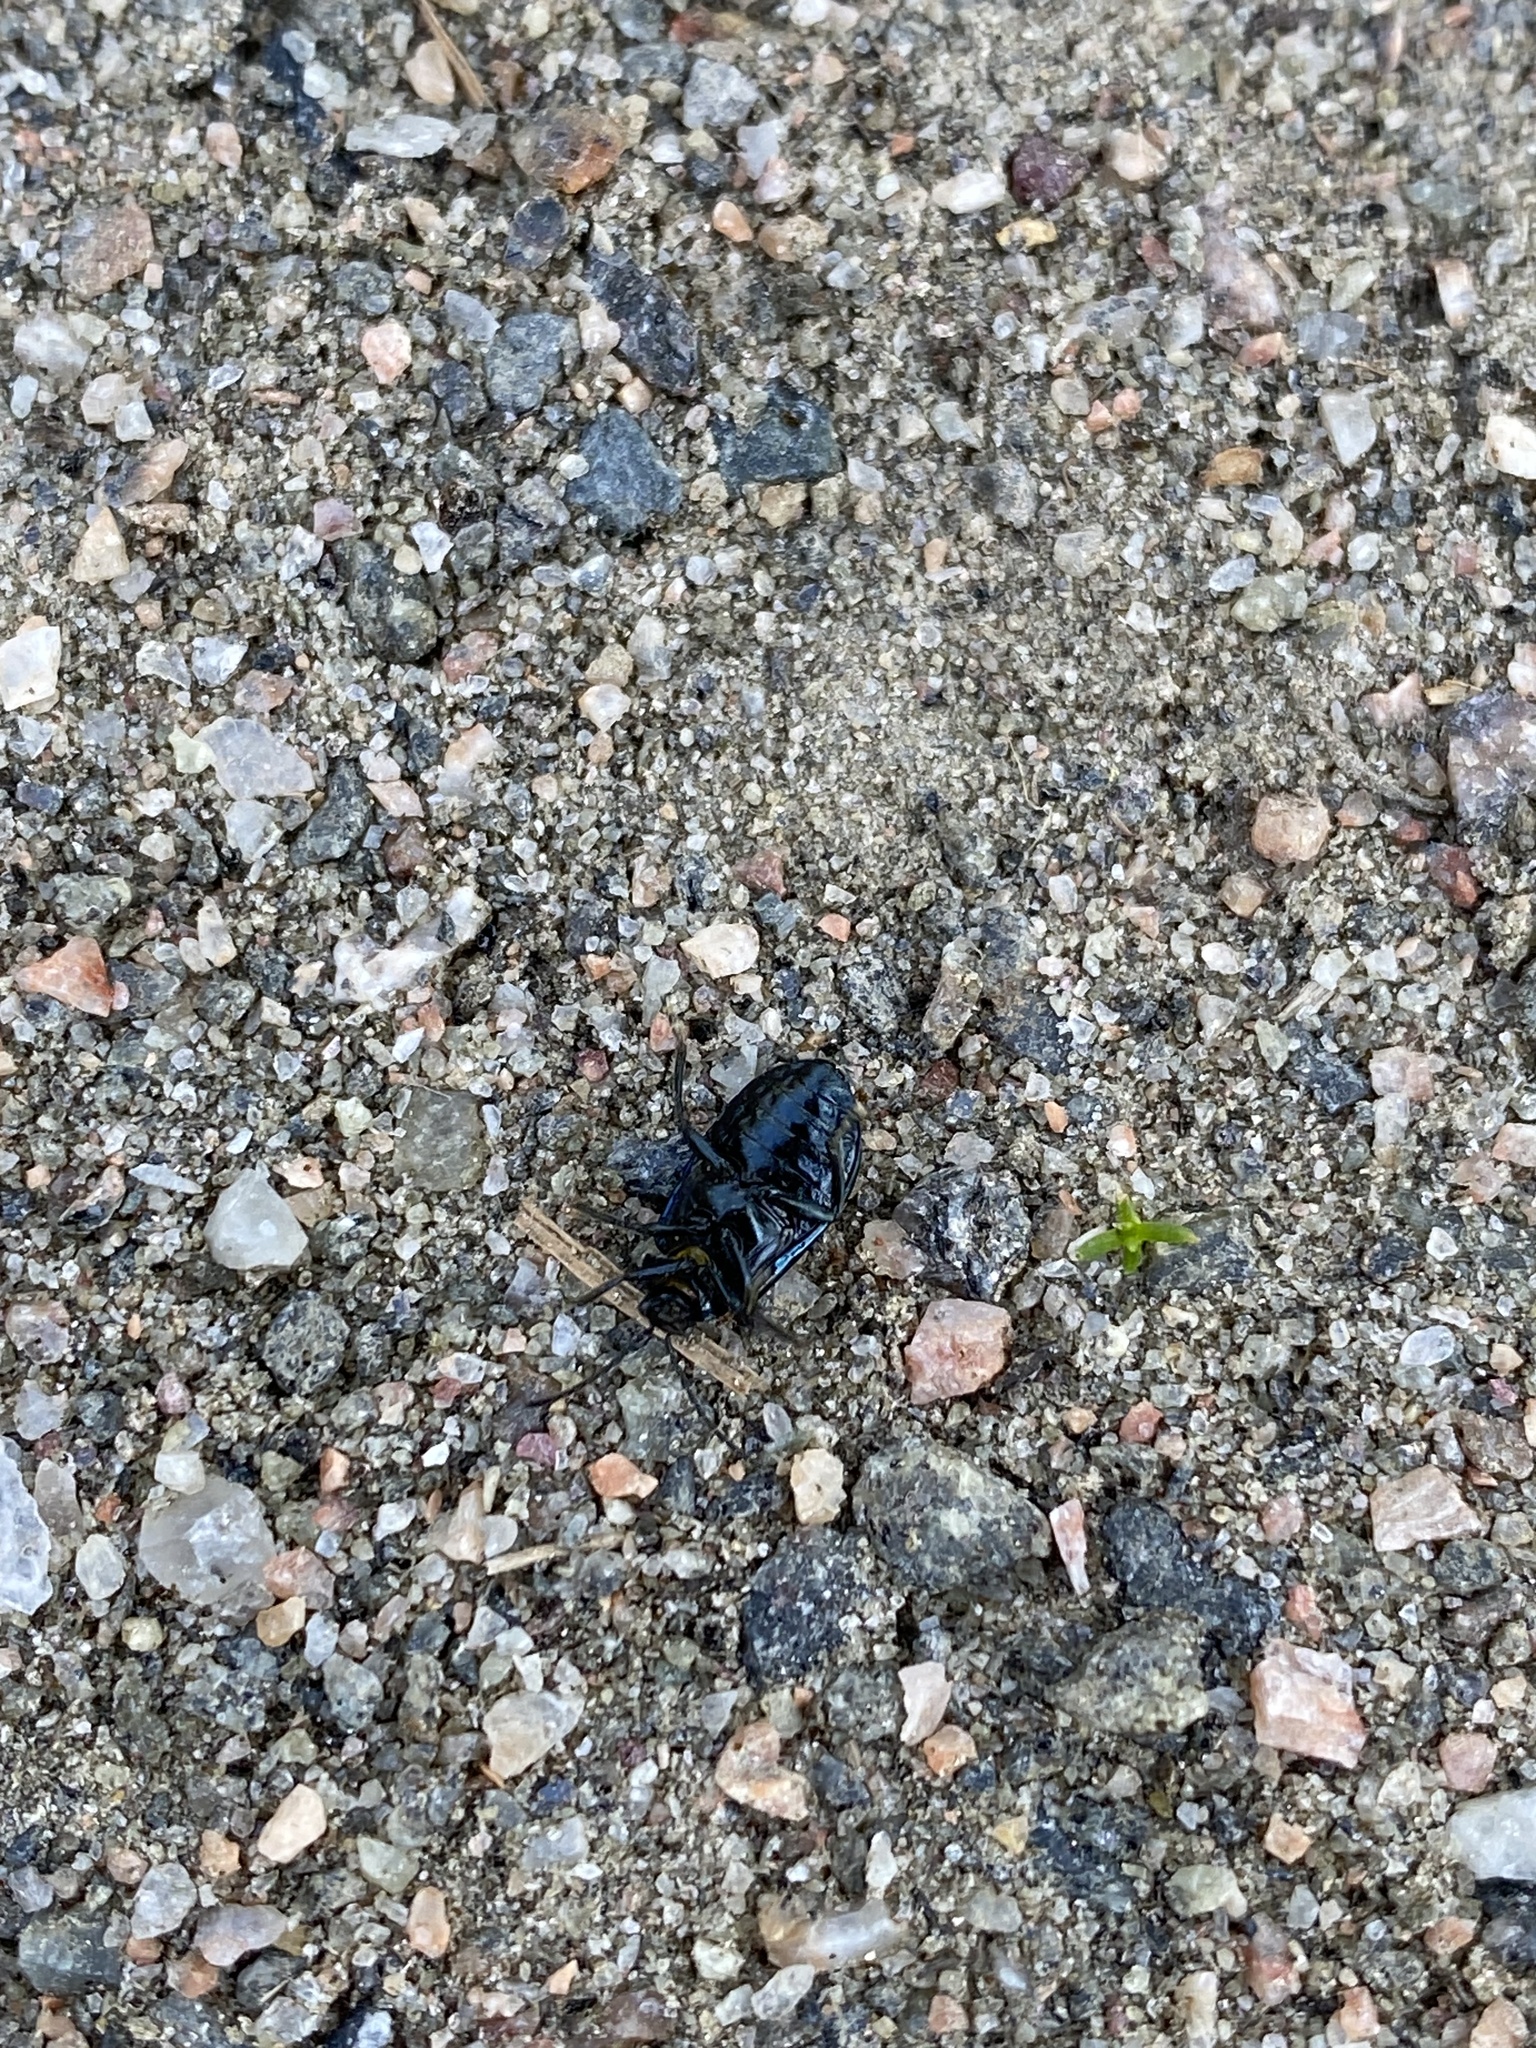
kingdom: Animalia
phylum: Arthropoda
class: Insecta
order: Coleoptera
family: Chrysomelidae
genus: Agelastica
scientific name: Agelastica alni
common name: Alder leaf beetle
